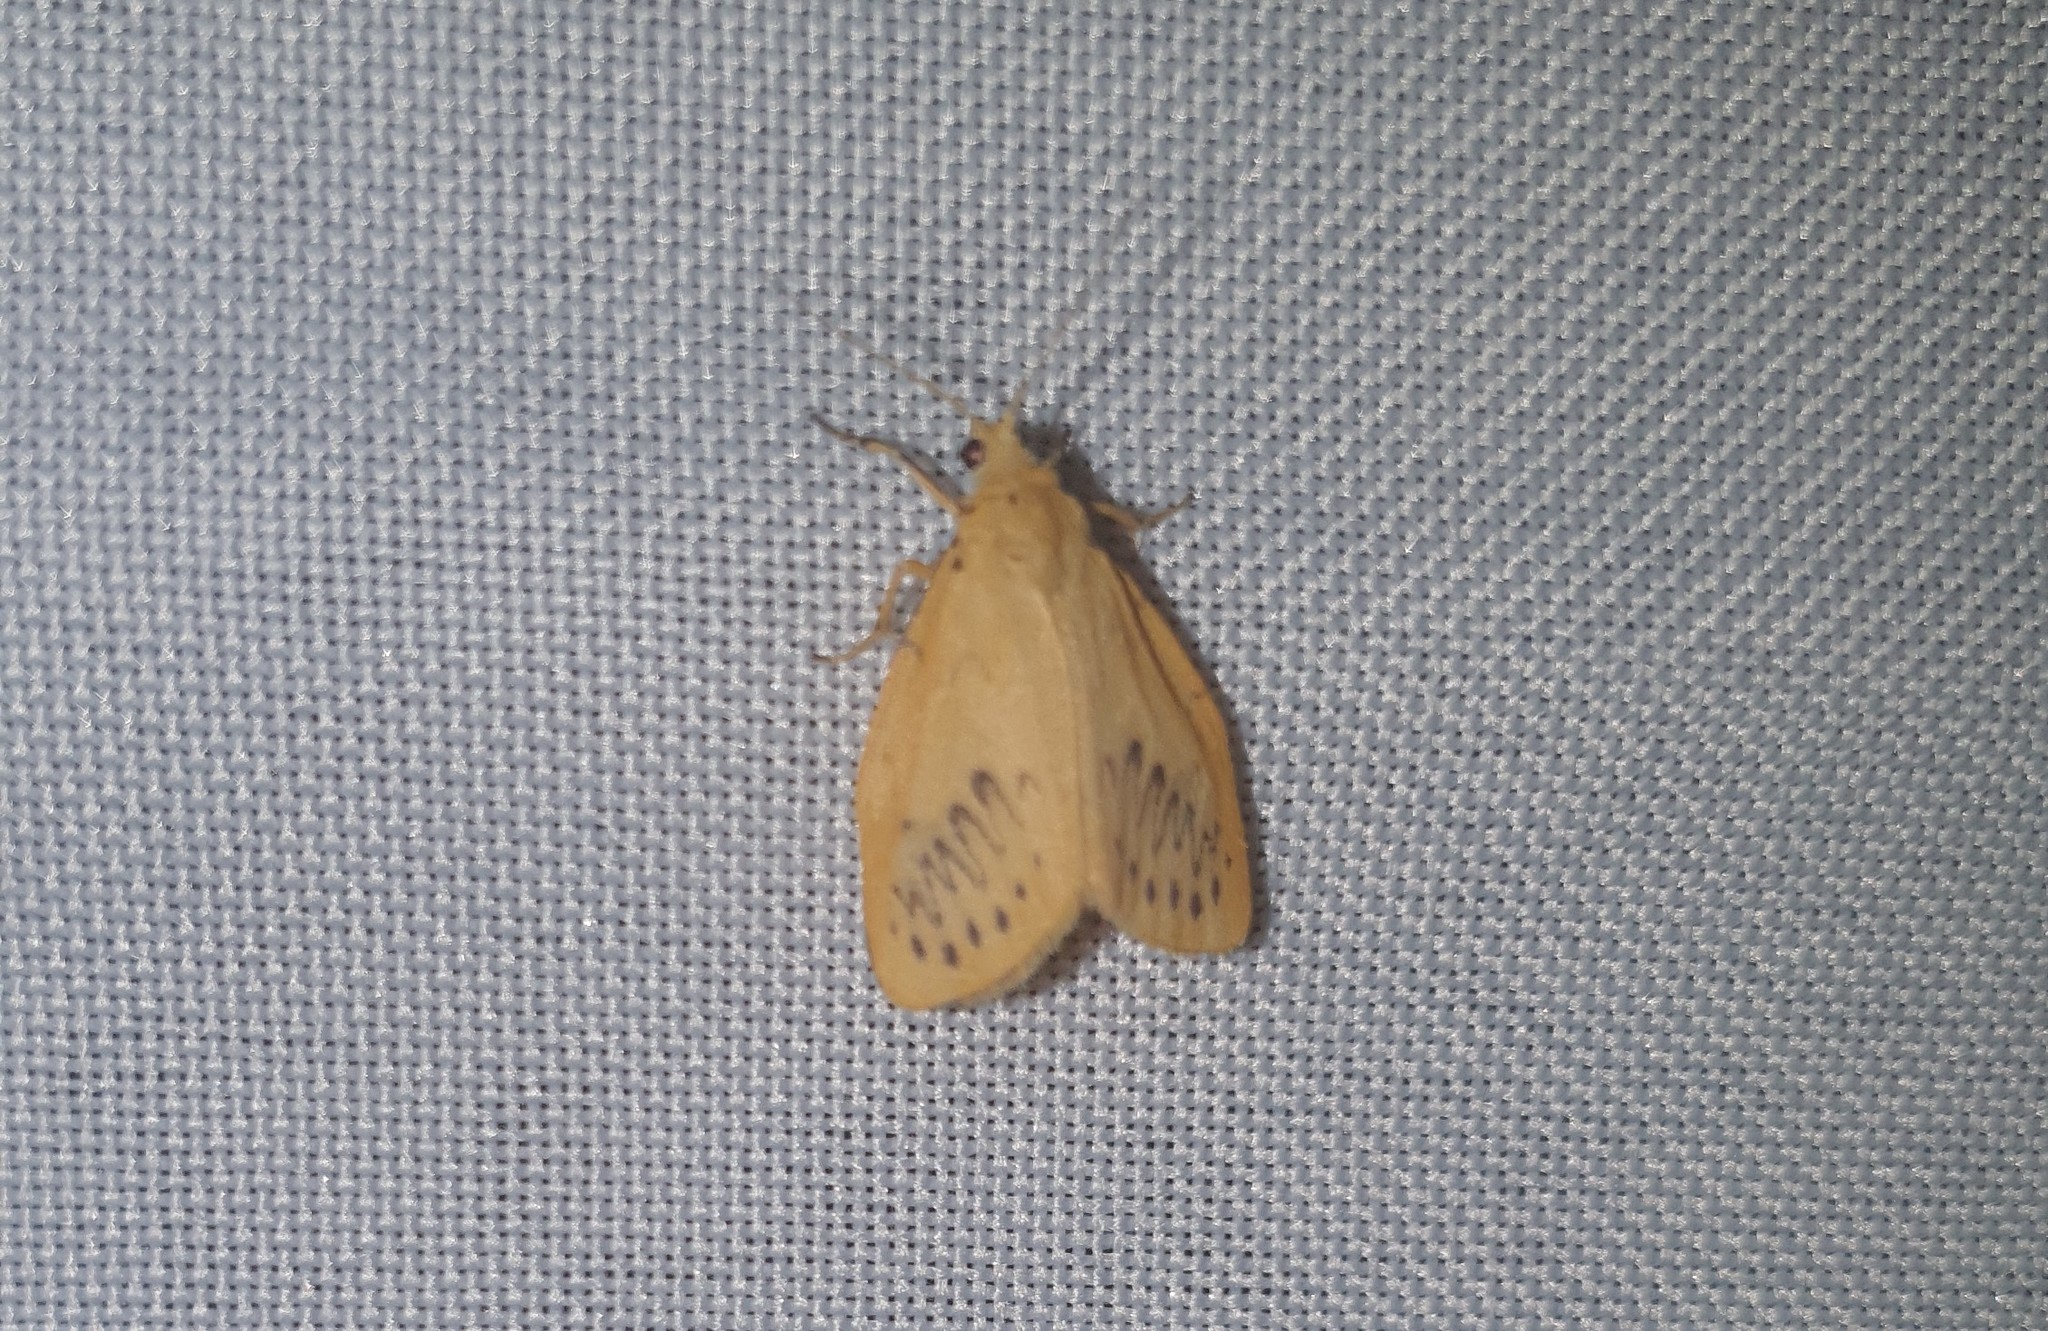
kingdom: Animalia
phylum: Arthropoda
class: Insecta
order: Lepidoptera
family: Erebidae
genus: Miltochrista
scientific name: Miltochrista miniata
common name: Rosy footman
